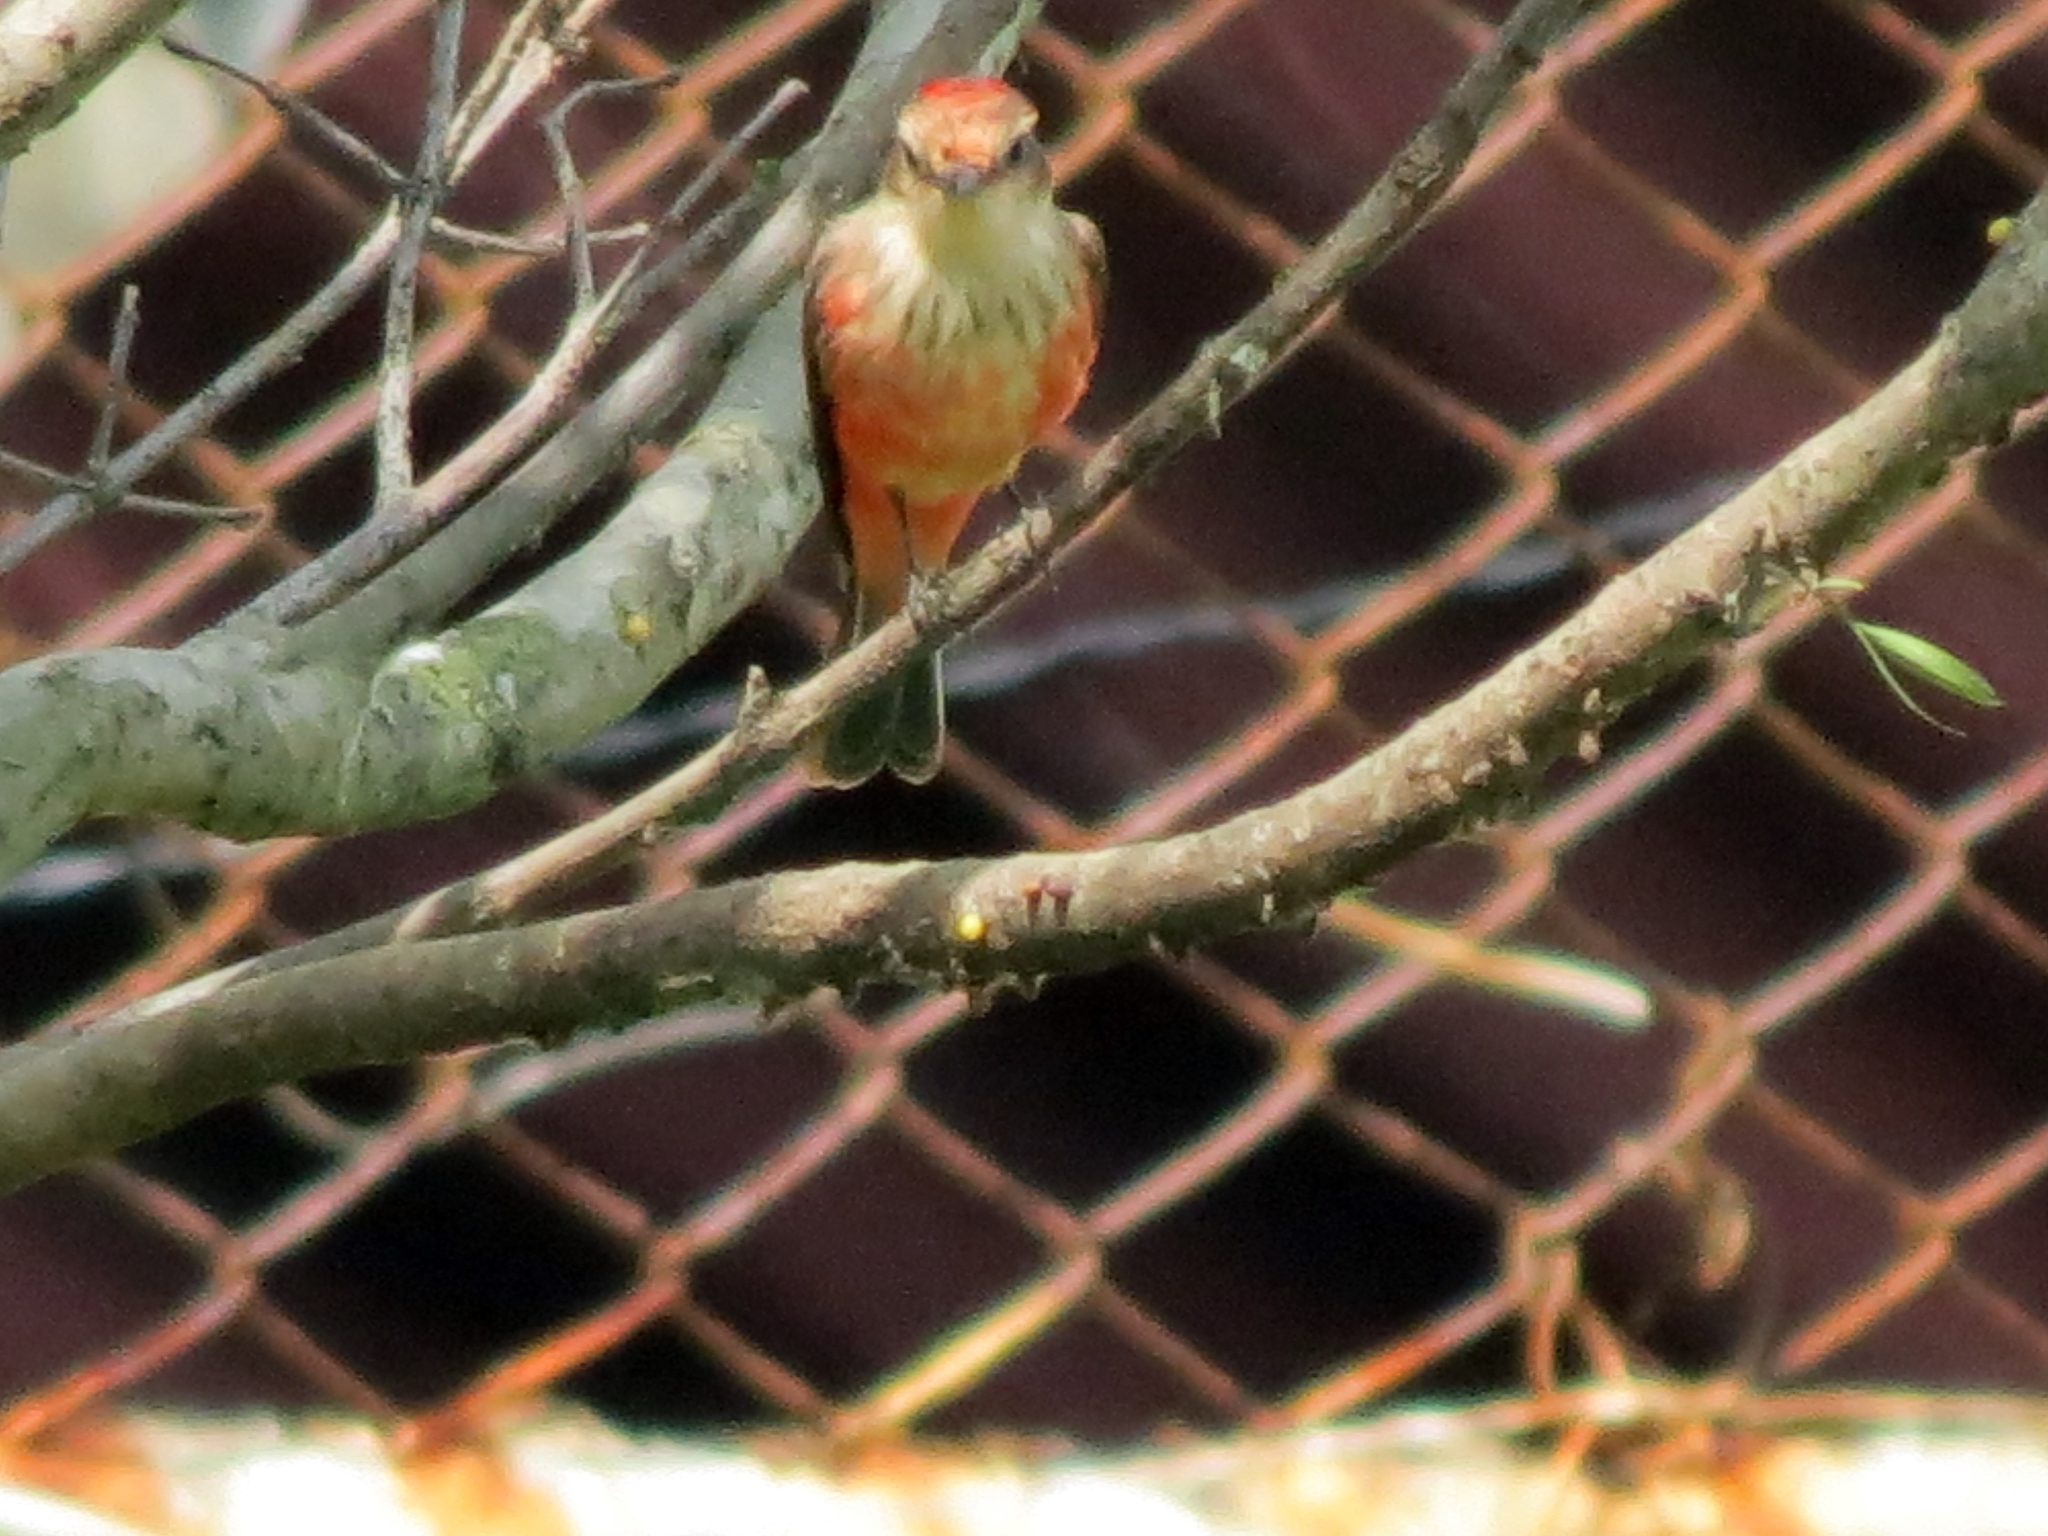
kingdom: Animalia
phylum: Chordata
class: Aves
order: Passeriformes
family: Tyrannidae
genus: Pyrocephalus
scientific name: Pyrocephalus rubinus
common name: Vermilion flycatcher
